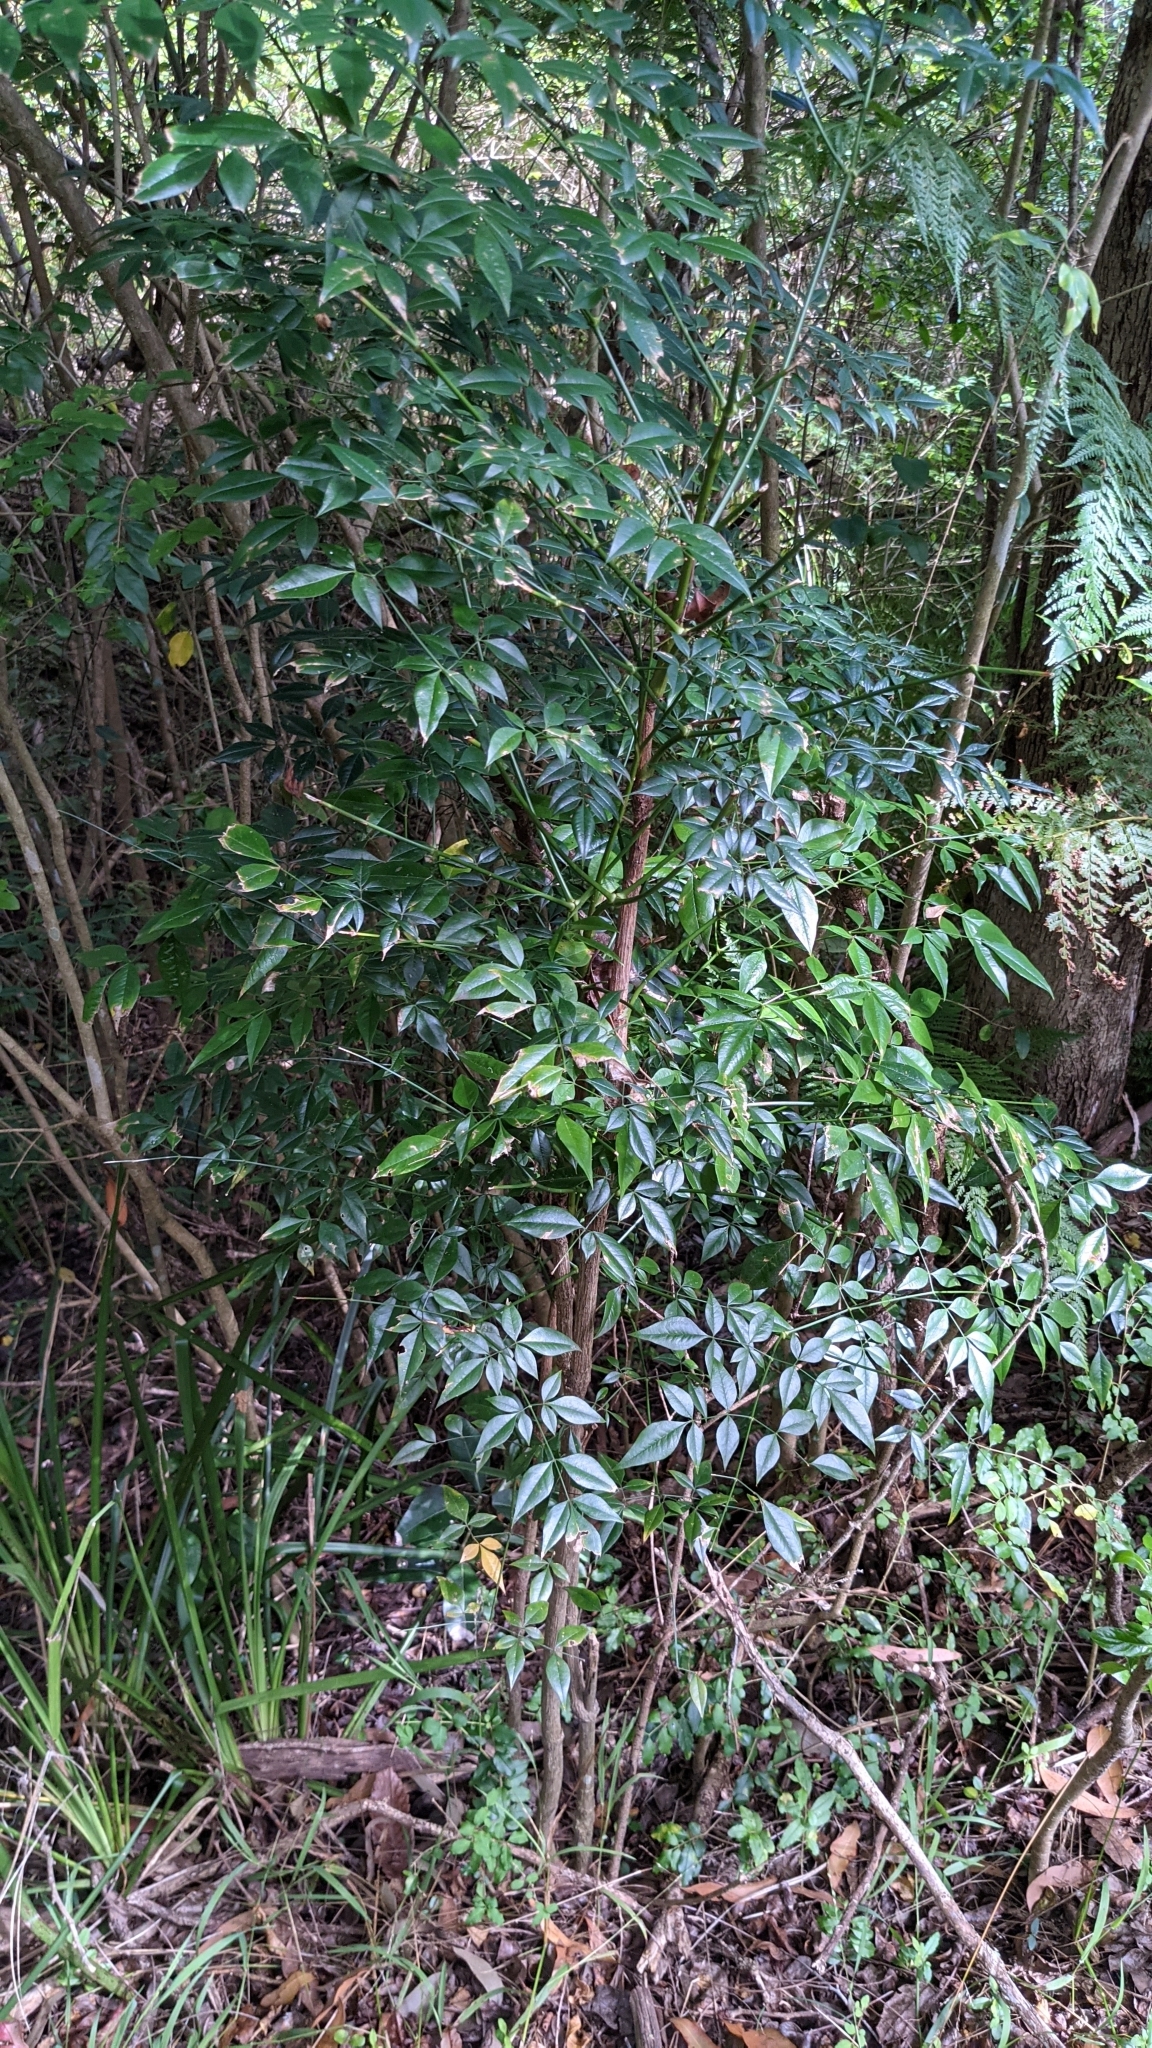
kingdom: Plantae
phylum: Tracheophyta
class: Magnoliopsida
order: Ranunculales
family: Berberidaceae
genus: Nandina
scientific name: Nandina domestica
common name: Sacred bamboo
